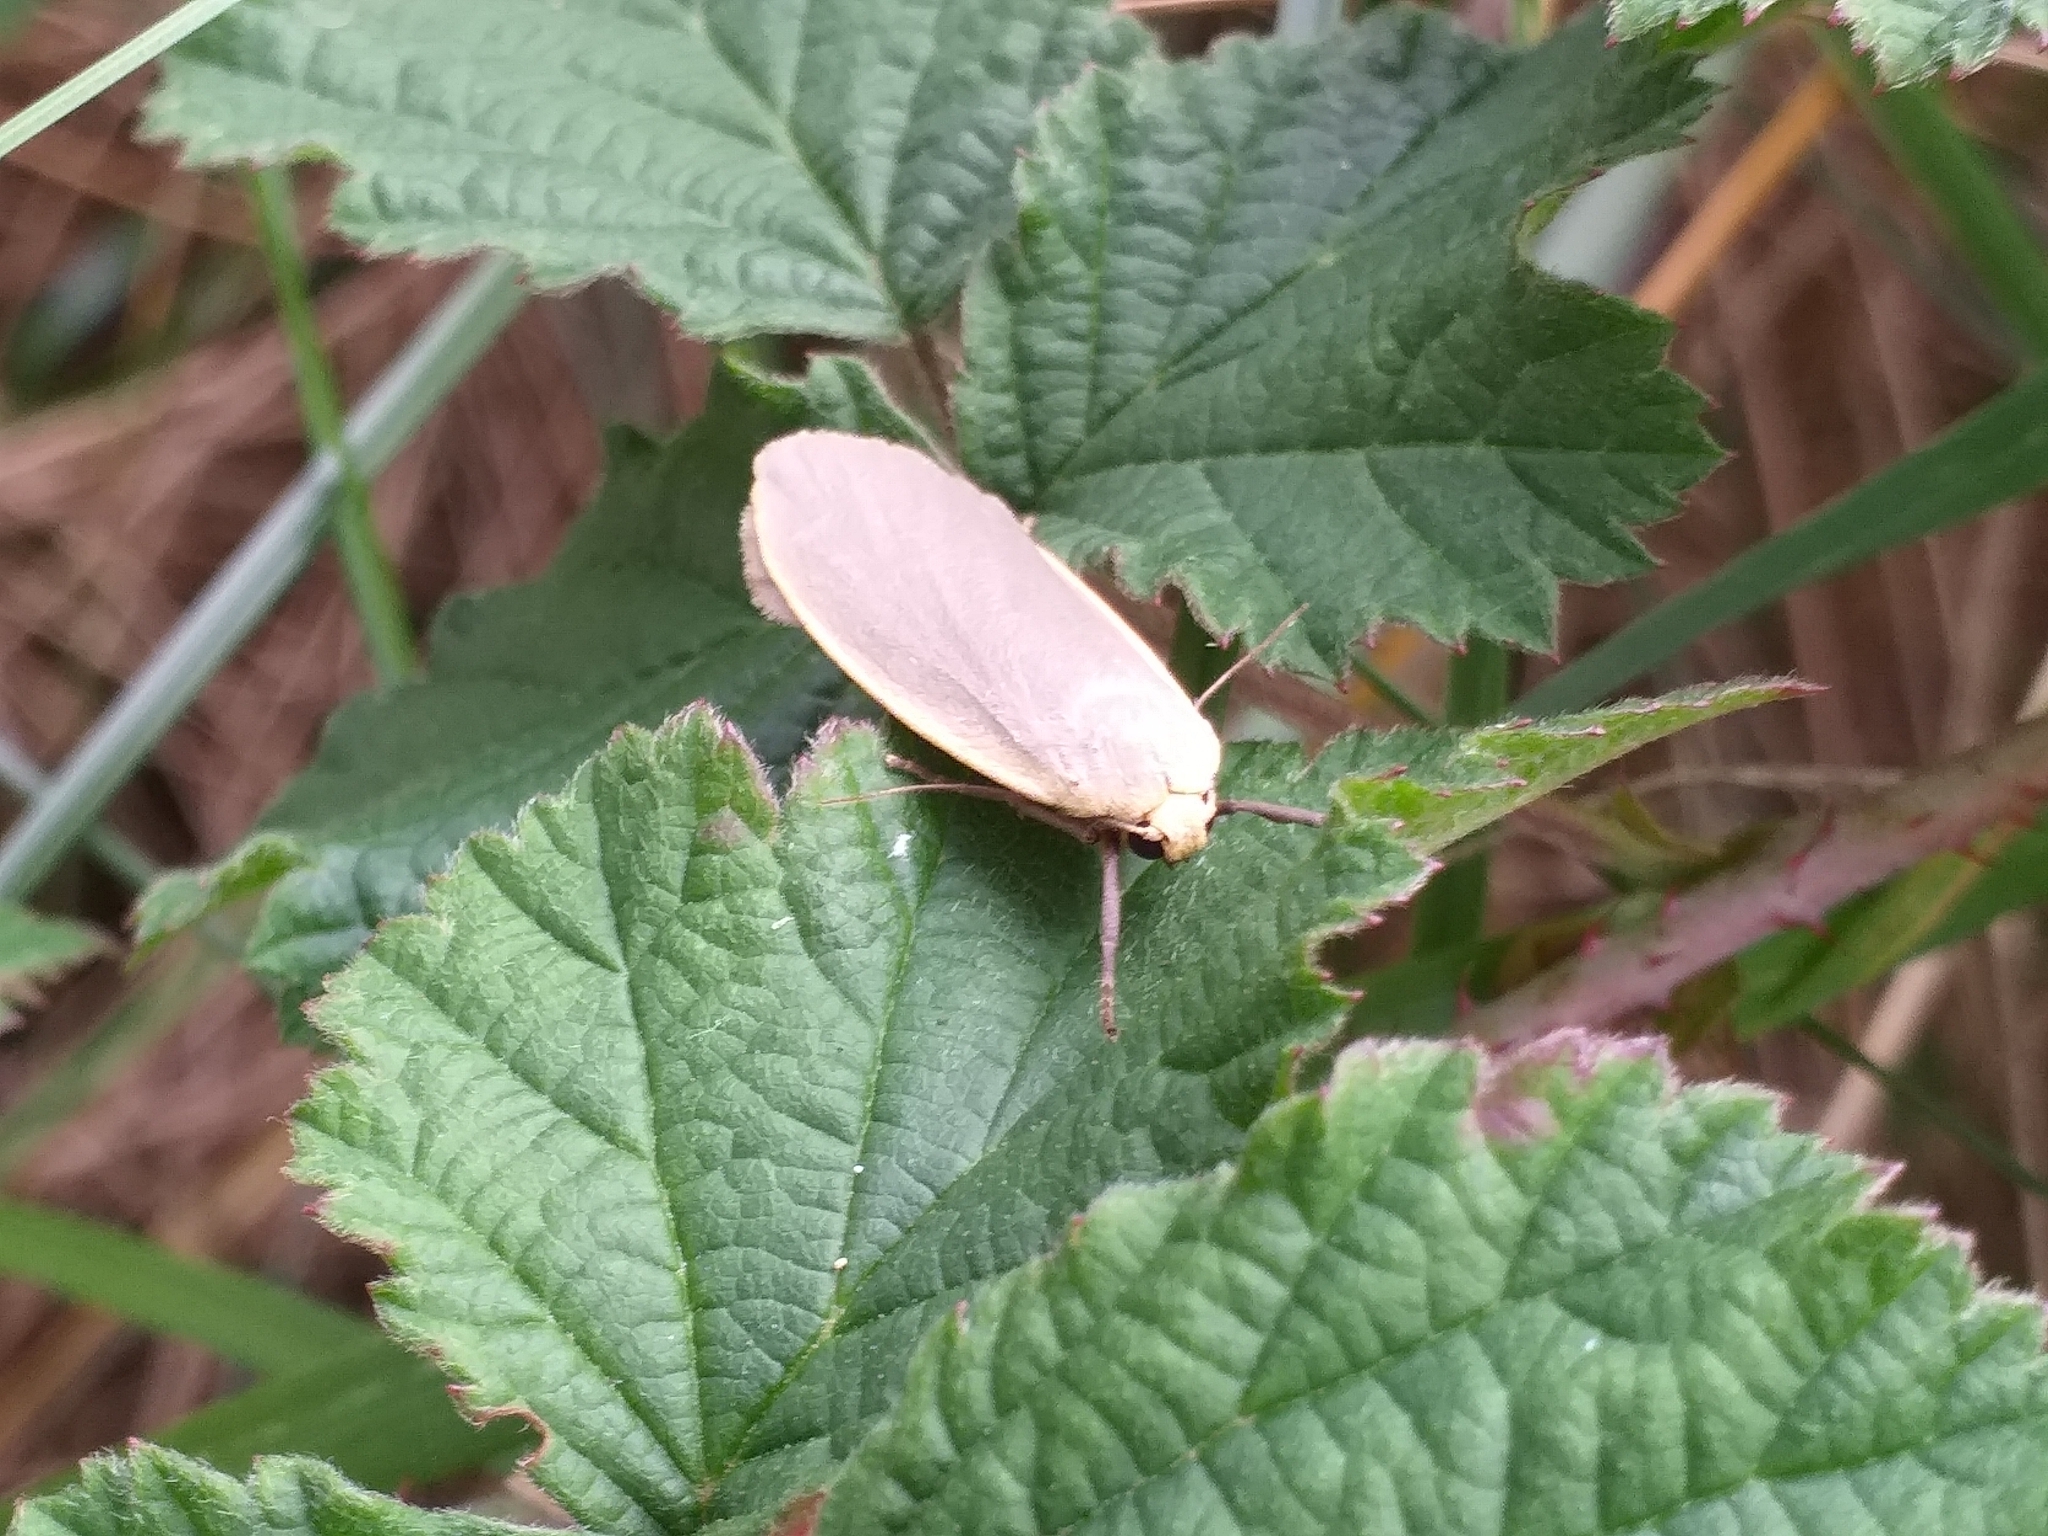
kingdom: Animalia
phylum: Arthropoda
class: Insecta
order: Lepidoptera
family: Erebidae
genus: Collita
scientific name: Collita griseola
